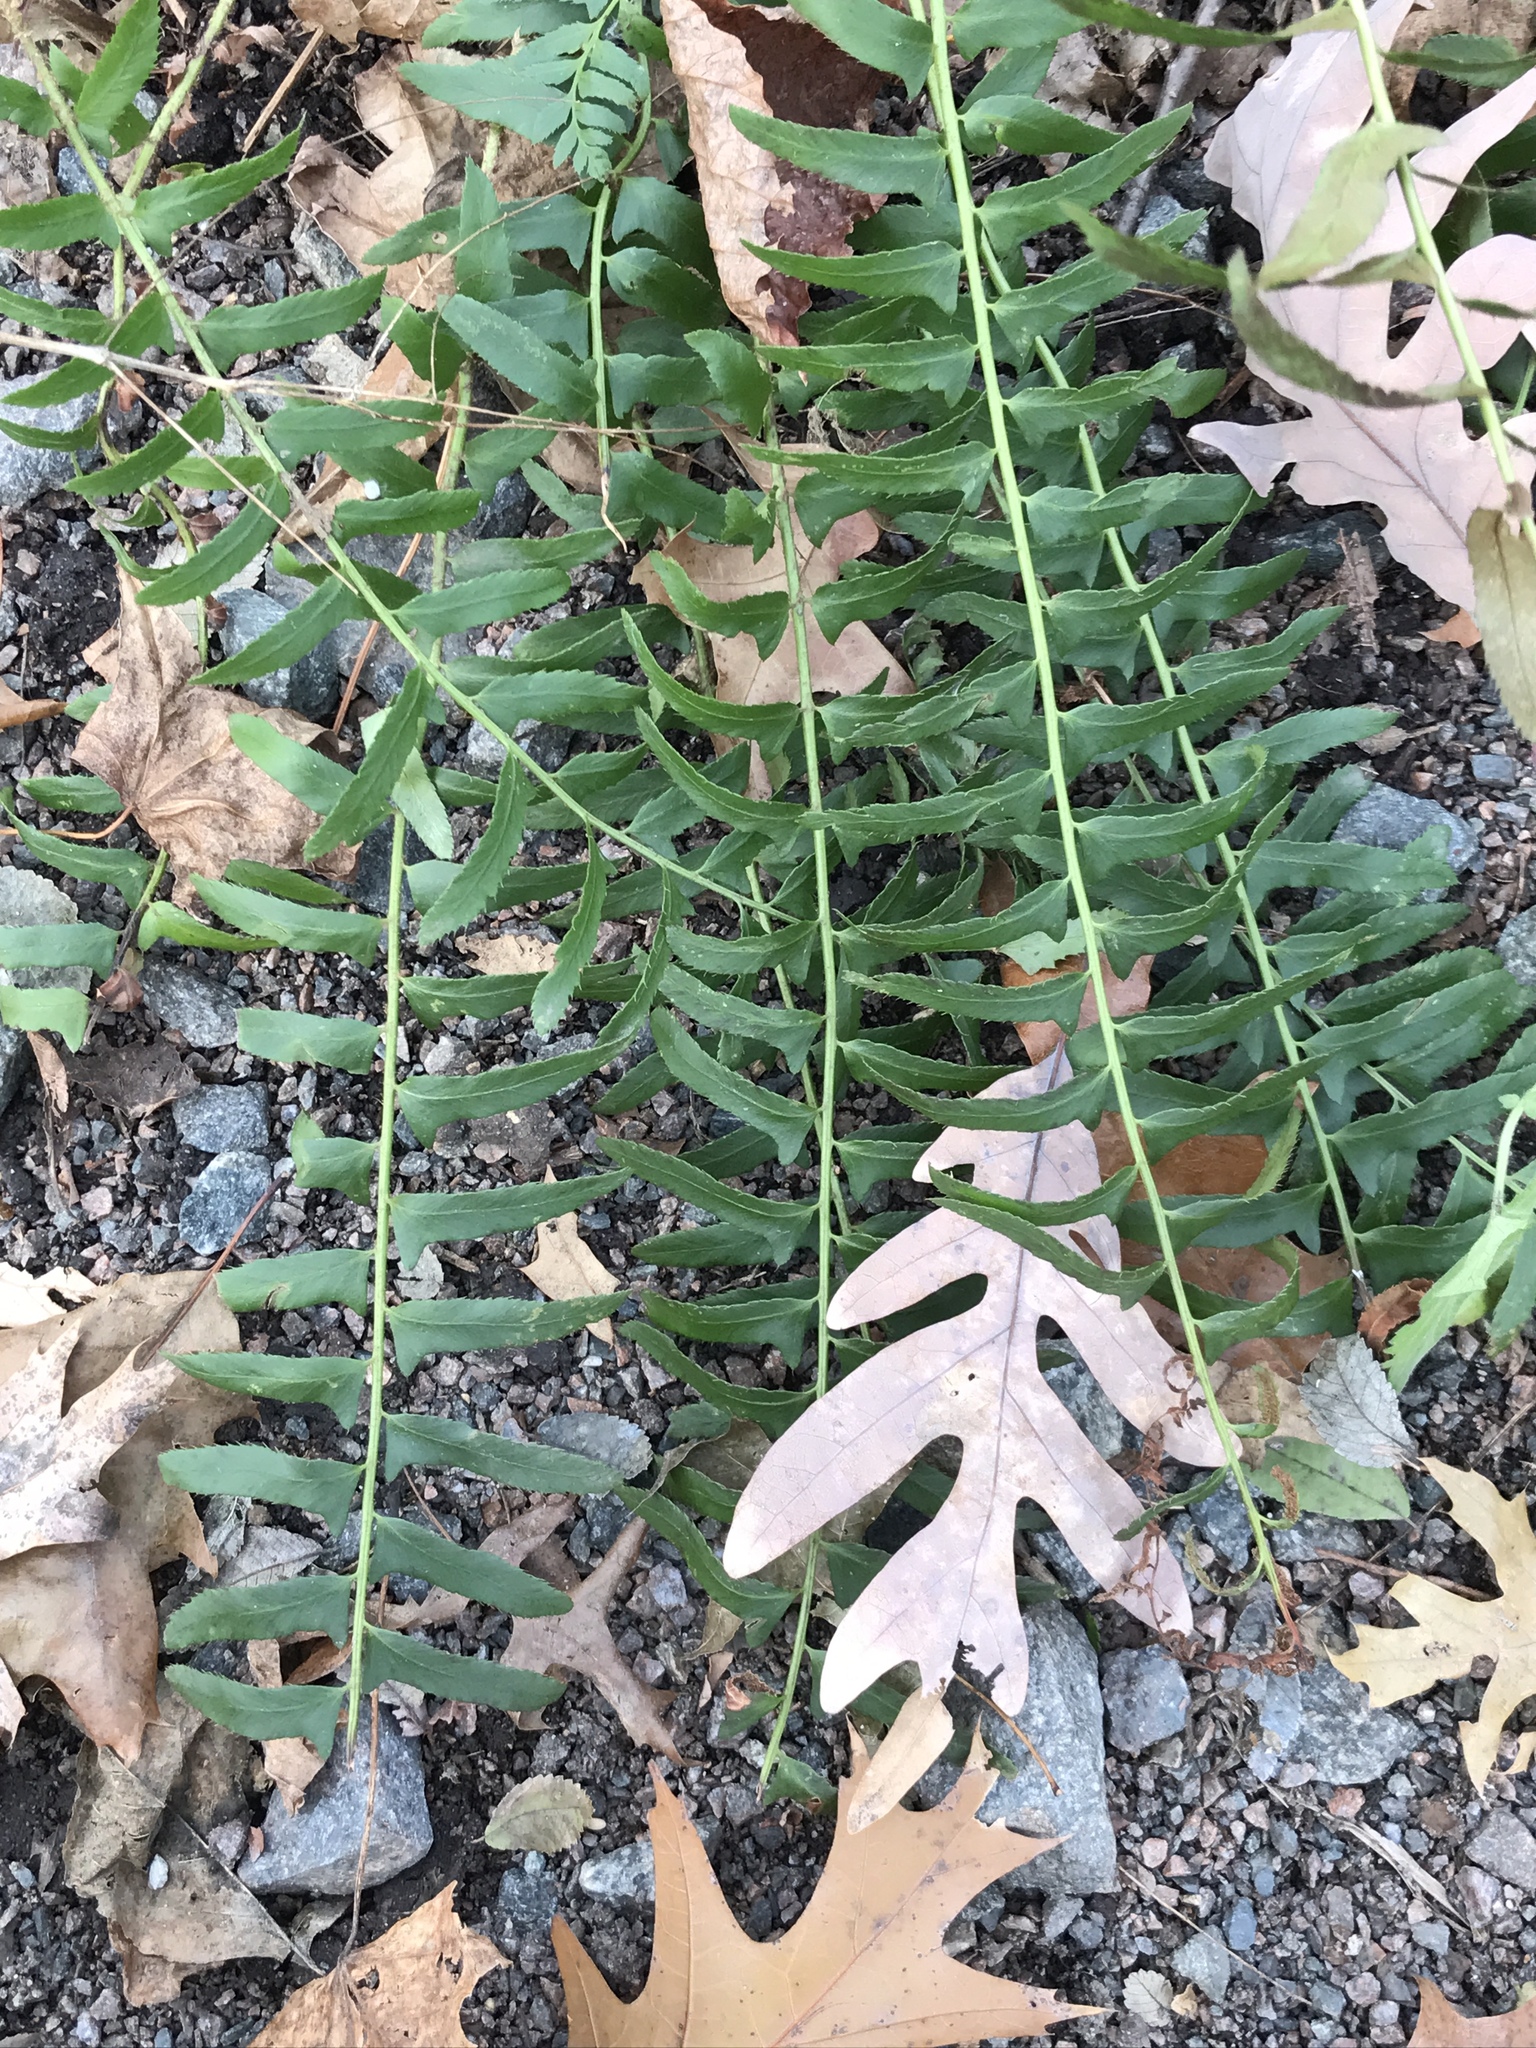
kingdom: Plantae
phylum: Tracheophyta
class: Polypodiopsida
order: Polypodiales
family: Dryopteridaceae
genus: Polystichum
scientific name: Polystichum acrostichoides
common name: Christmas fern
